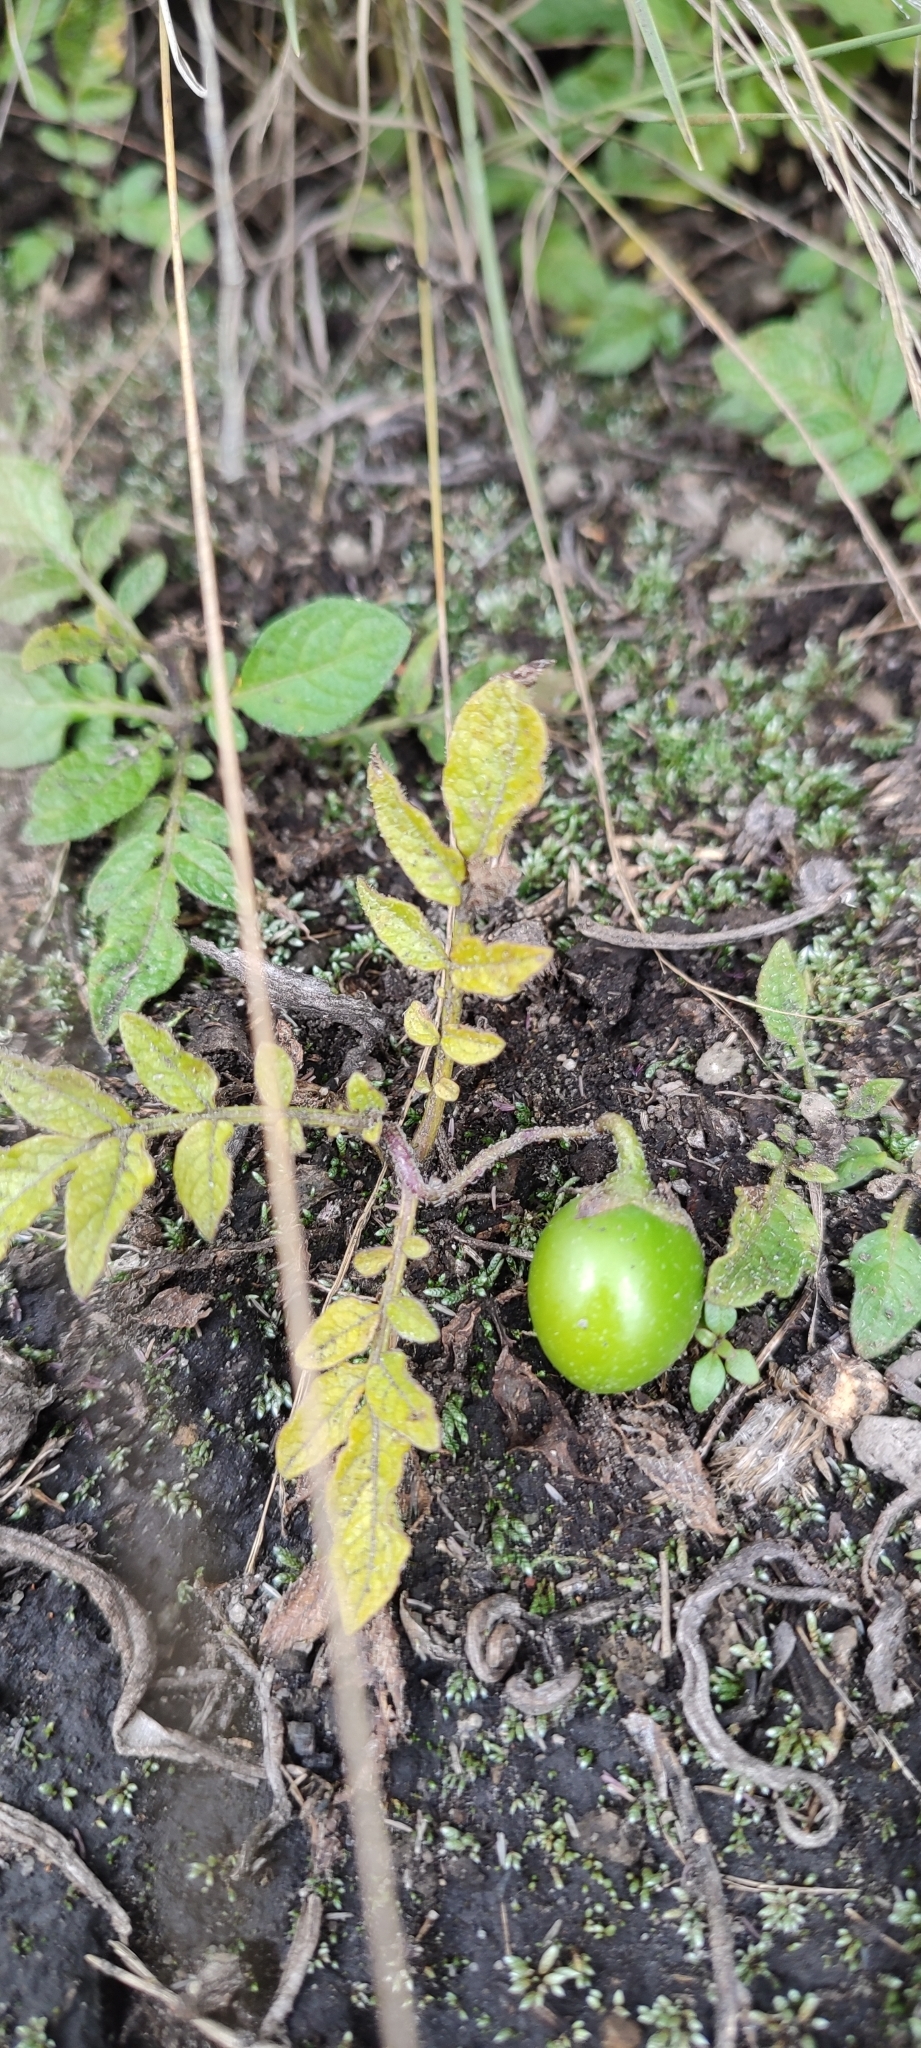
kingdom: Plantae
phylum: Tracheophyta
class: Magnoliopsida
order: Solanales
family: Solanaceae
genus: Solanum
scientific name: Solanum demissum
